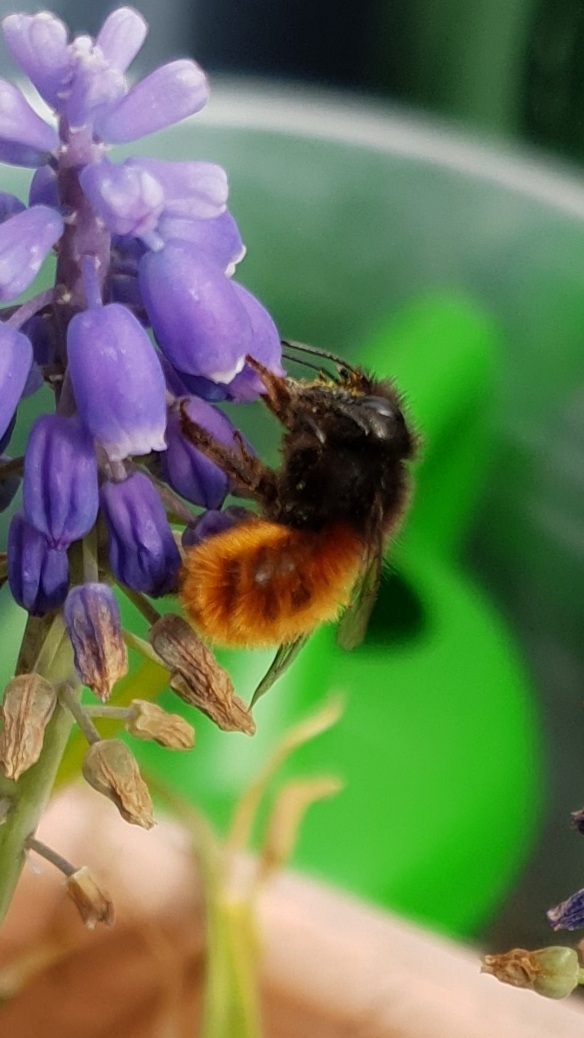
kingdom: Animalia
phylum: Arthropoda
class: Insecta
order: Hymenoptera
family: Megachilidae
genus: Osmia
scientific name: Osmia cornuta
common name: Mason bee
